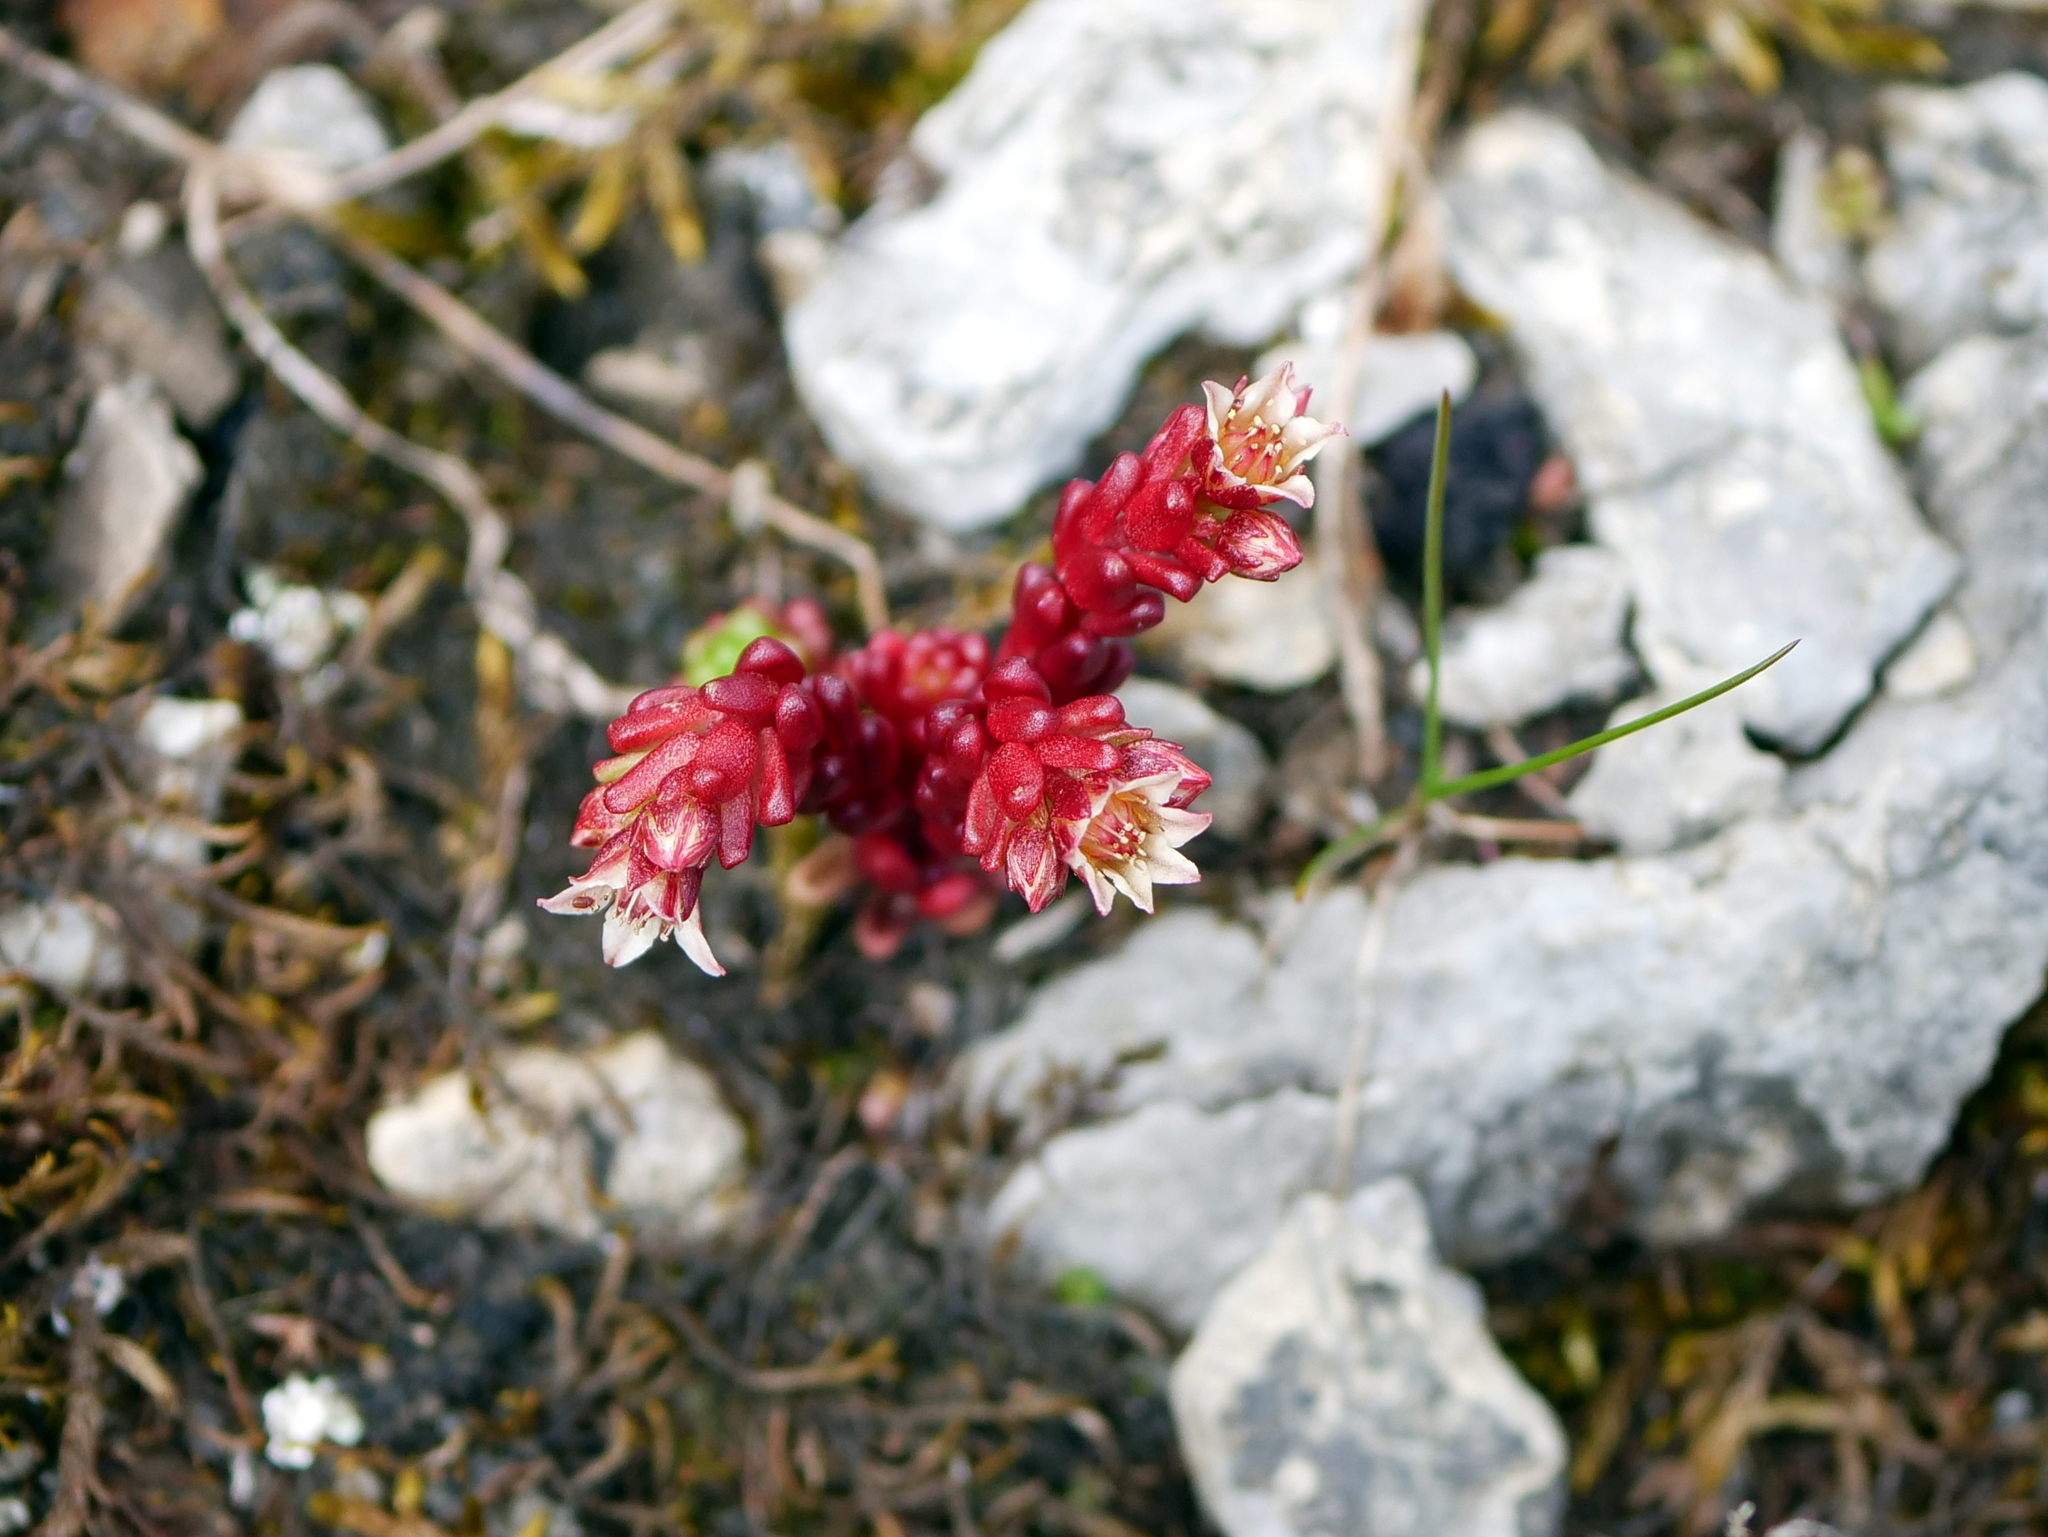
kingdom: Plantae
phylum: Tracheophyta
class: Magnoliopsida
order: Saxifragales
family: Crassulaceae
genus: Sedum
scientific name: Sedum atratum
